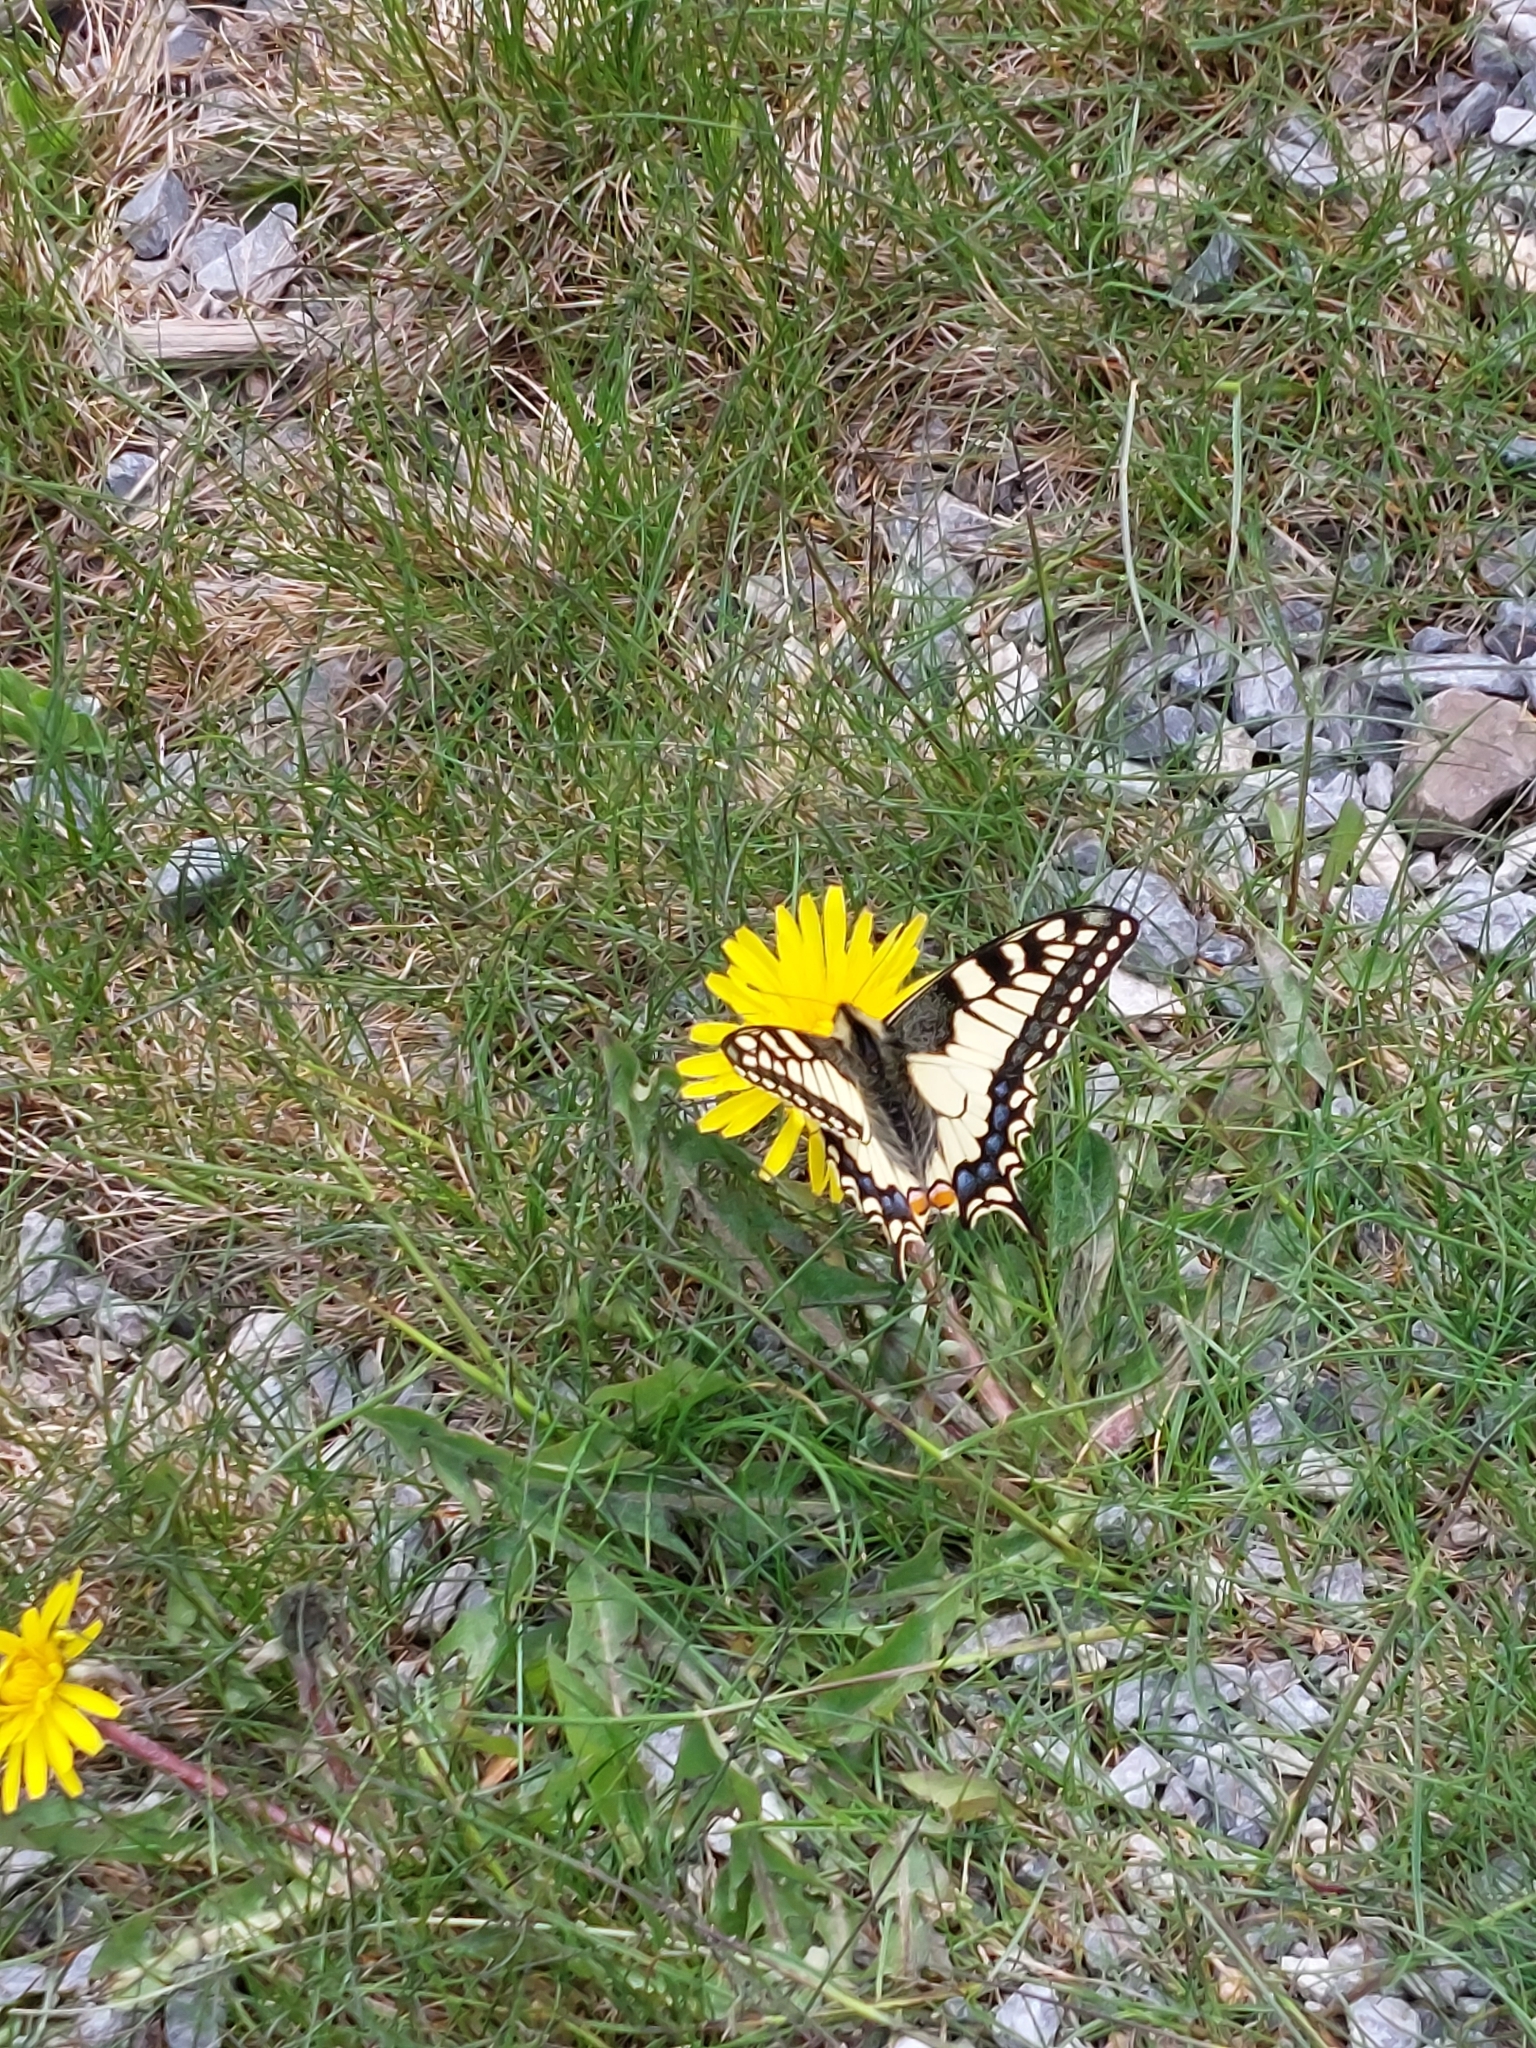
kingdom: Animalia
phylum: Arthropoda
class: Insecta
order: Lepidoptera
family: Papilionidae
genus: Papilio
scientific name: Papilio machaon
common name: Swallowtail
